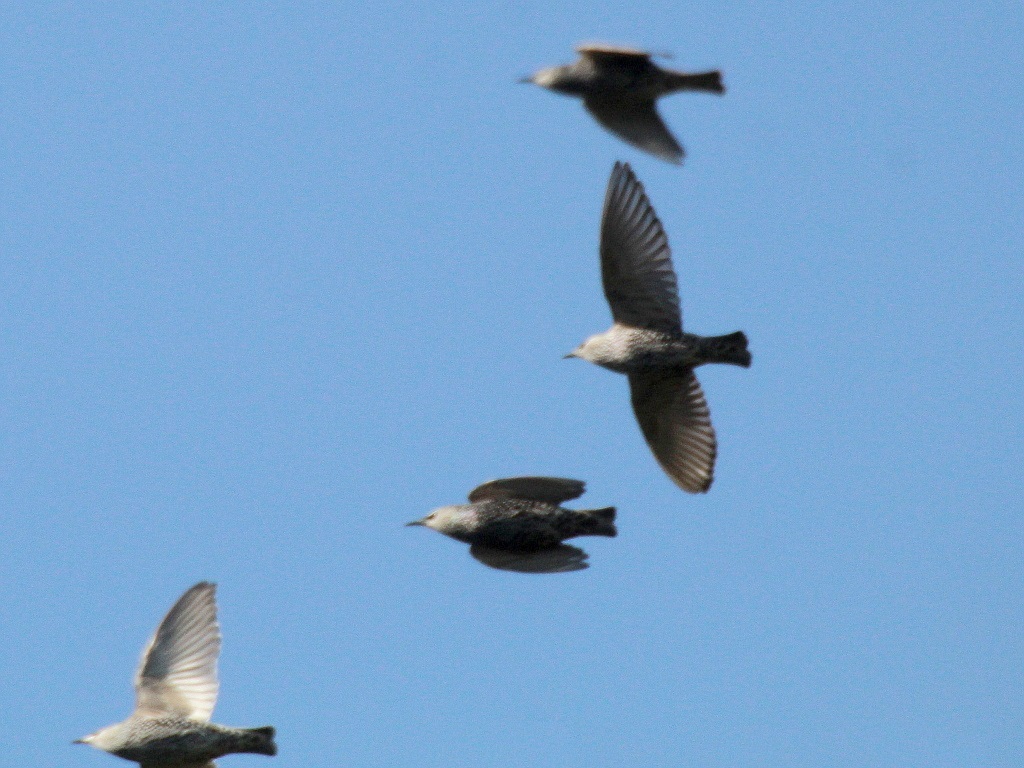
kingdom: Animalia
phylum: Chordata
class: Aves
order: Passeriformes
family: Sturnidae
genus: Sturnus
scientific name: Sturnus vulgaris
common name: Common starling
